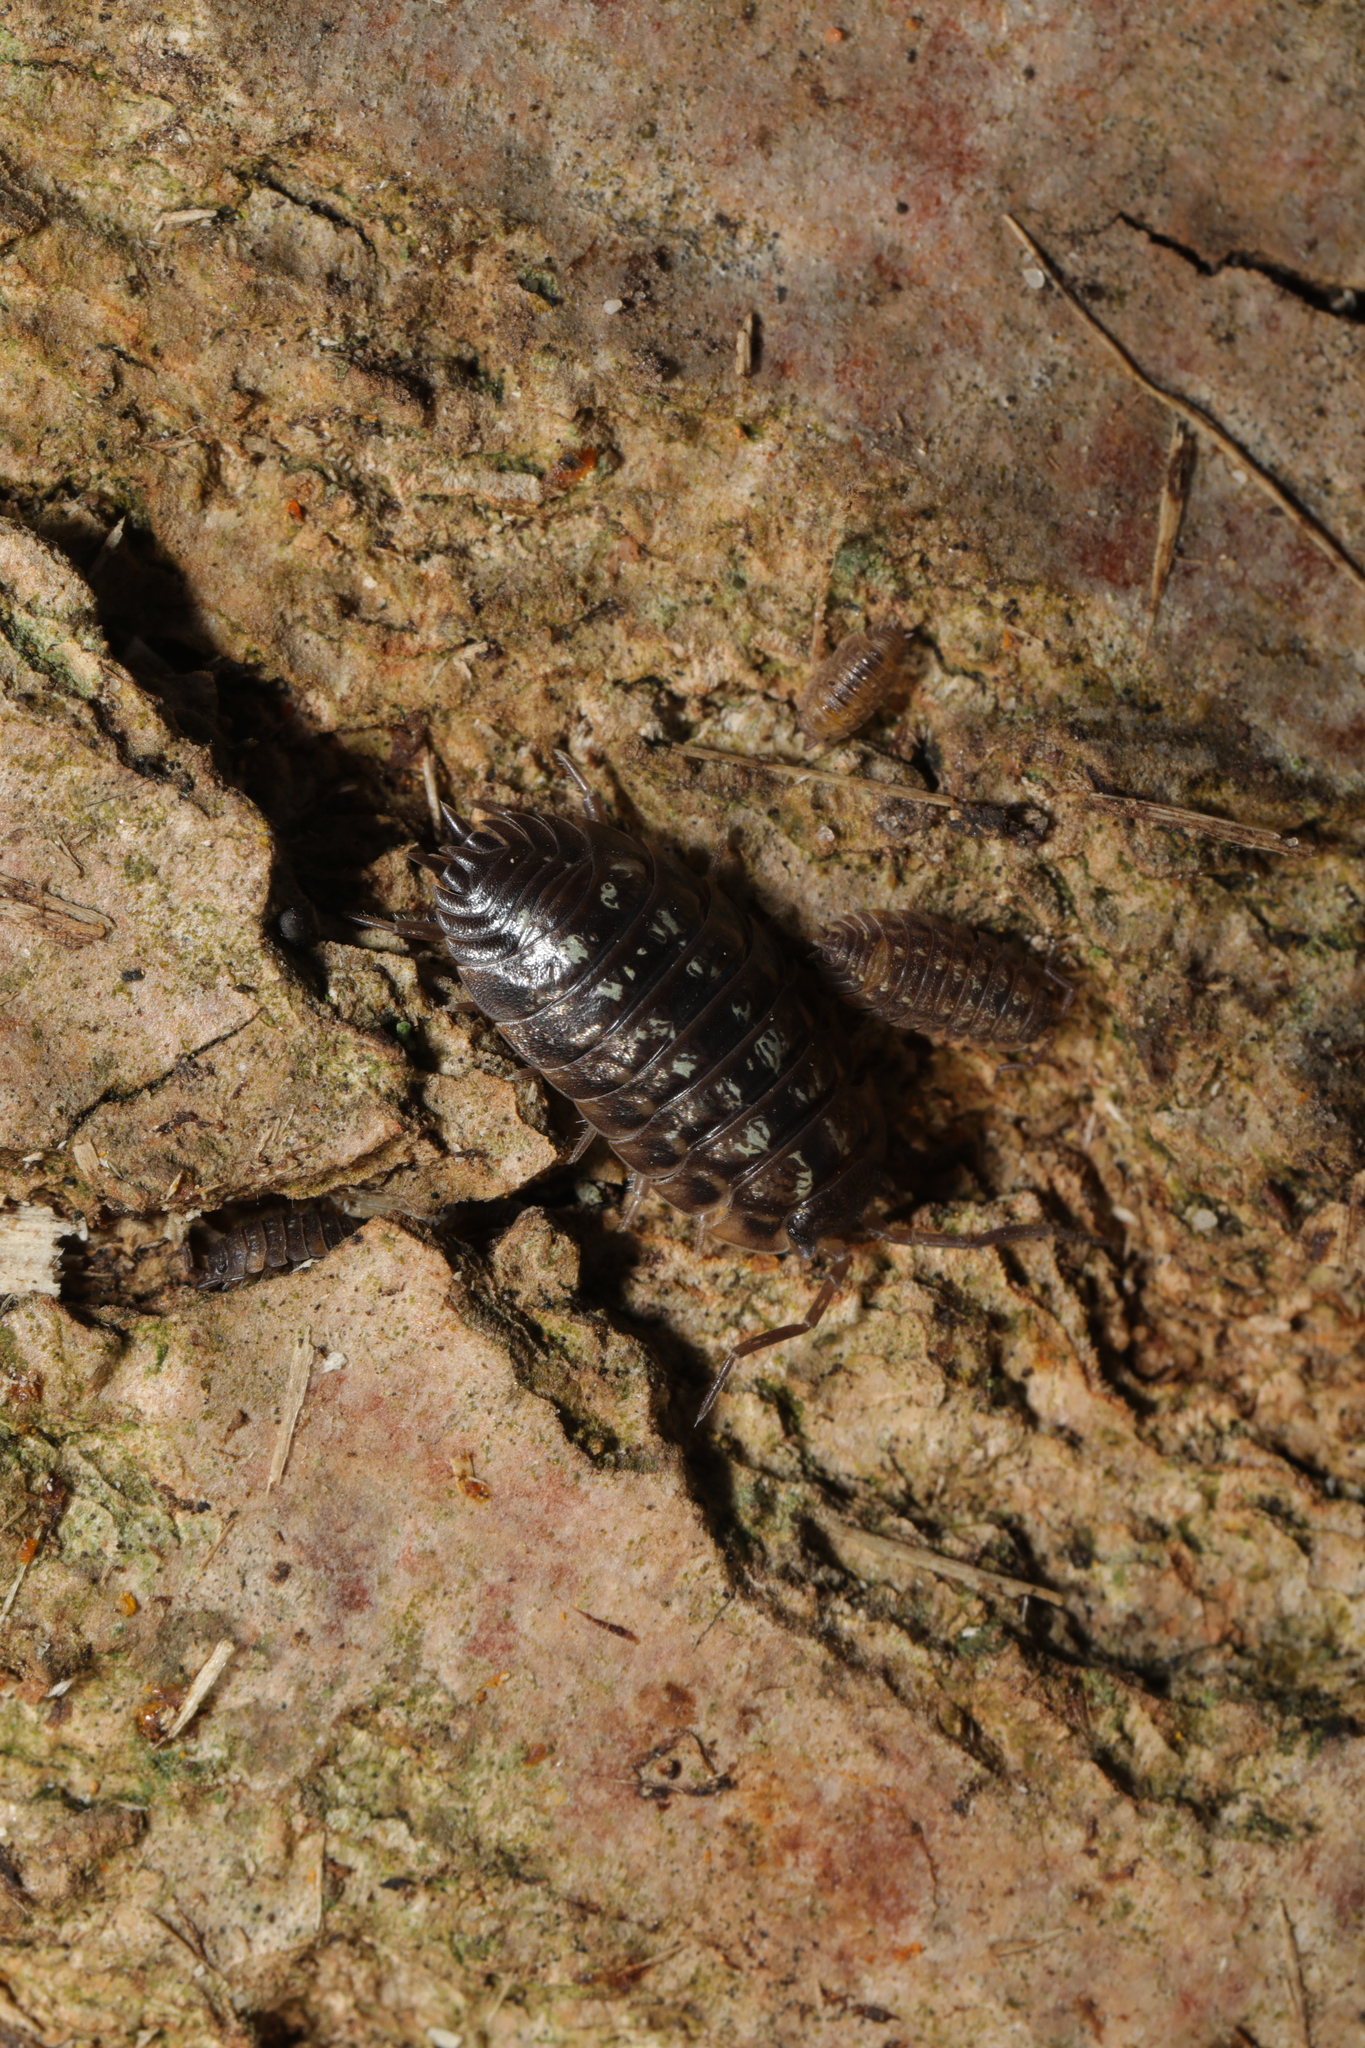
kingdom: Animalia
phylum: Arthropoda
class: Malacostraca
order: Isopoda
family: Oniscidae
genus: Oniscus
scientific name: Oniscus asellus
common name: Common shiny woodlouse
